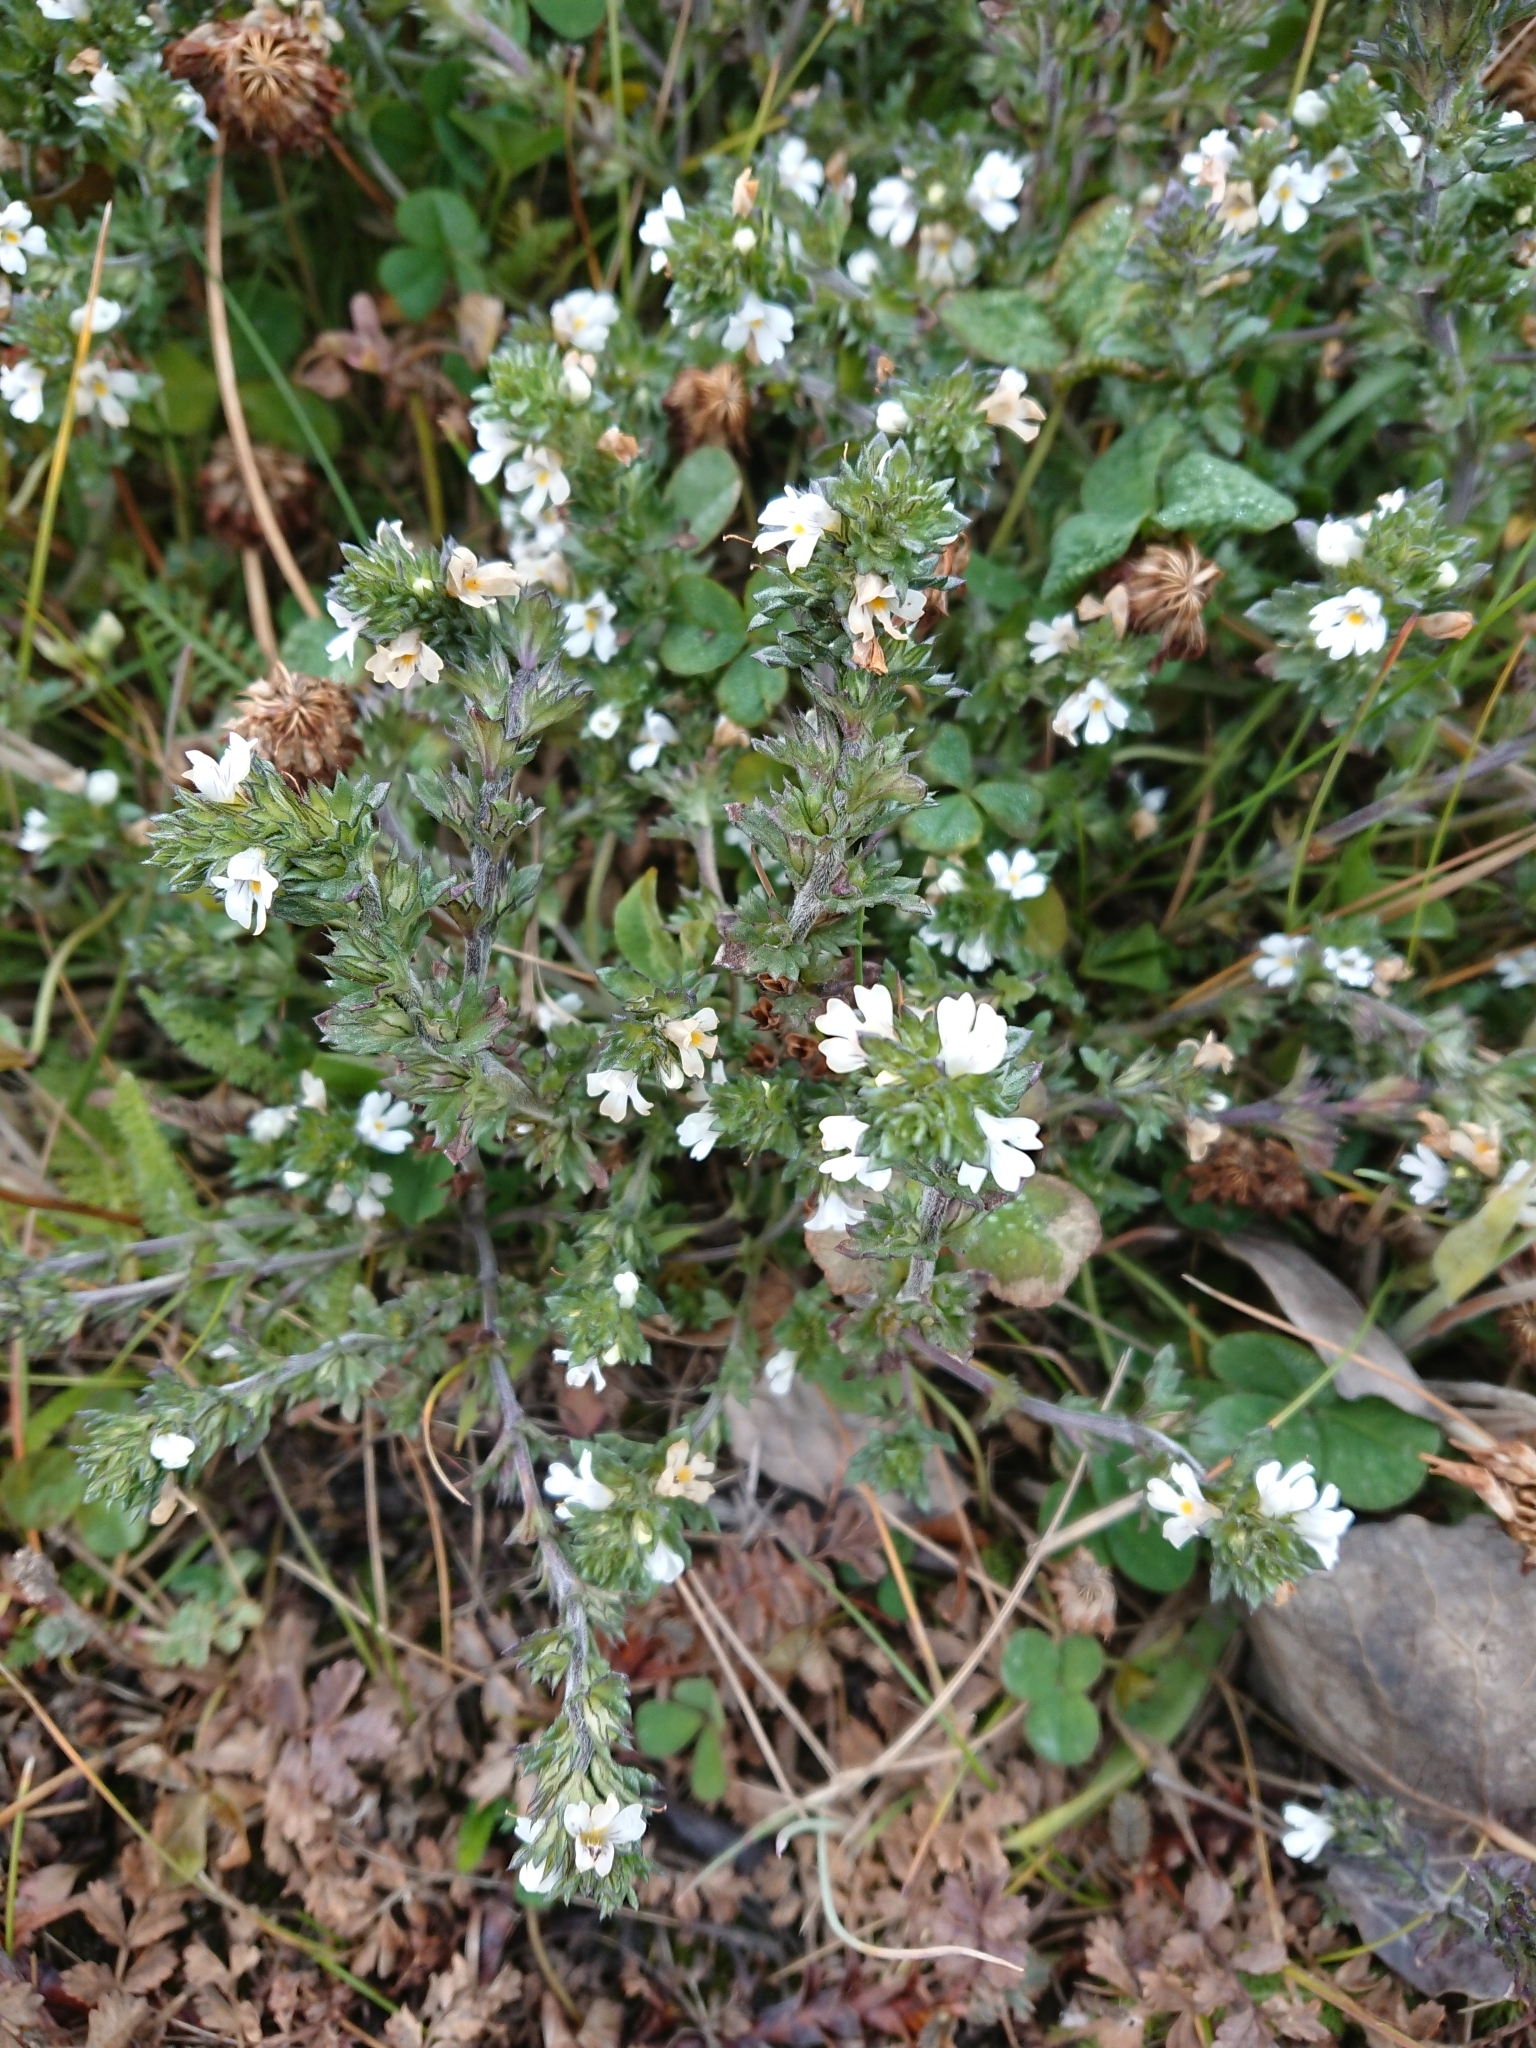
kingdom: Plantae
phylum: Tracheophyta
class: Magnoliopsida
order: Lamiales
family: Orobanchaceae
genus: Euphrasia
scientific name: Euphrasia officinalis
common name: Eyebright
